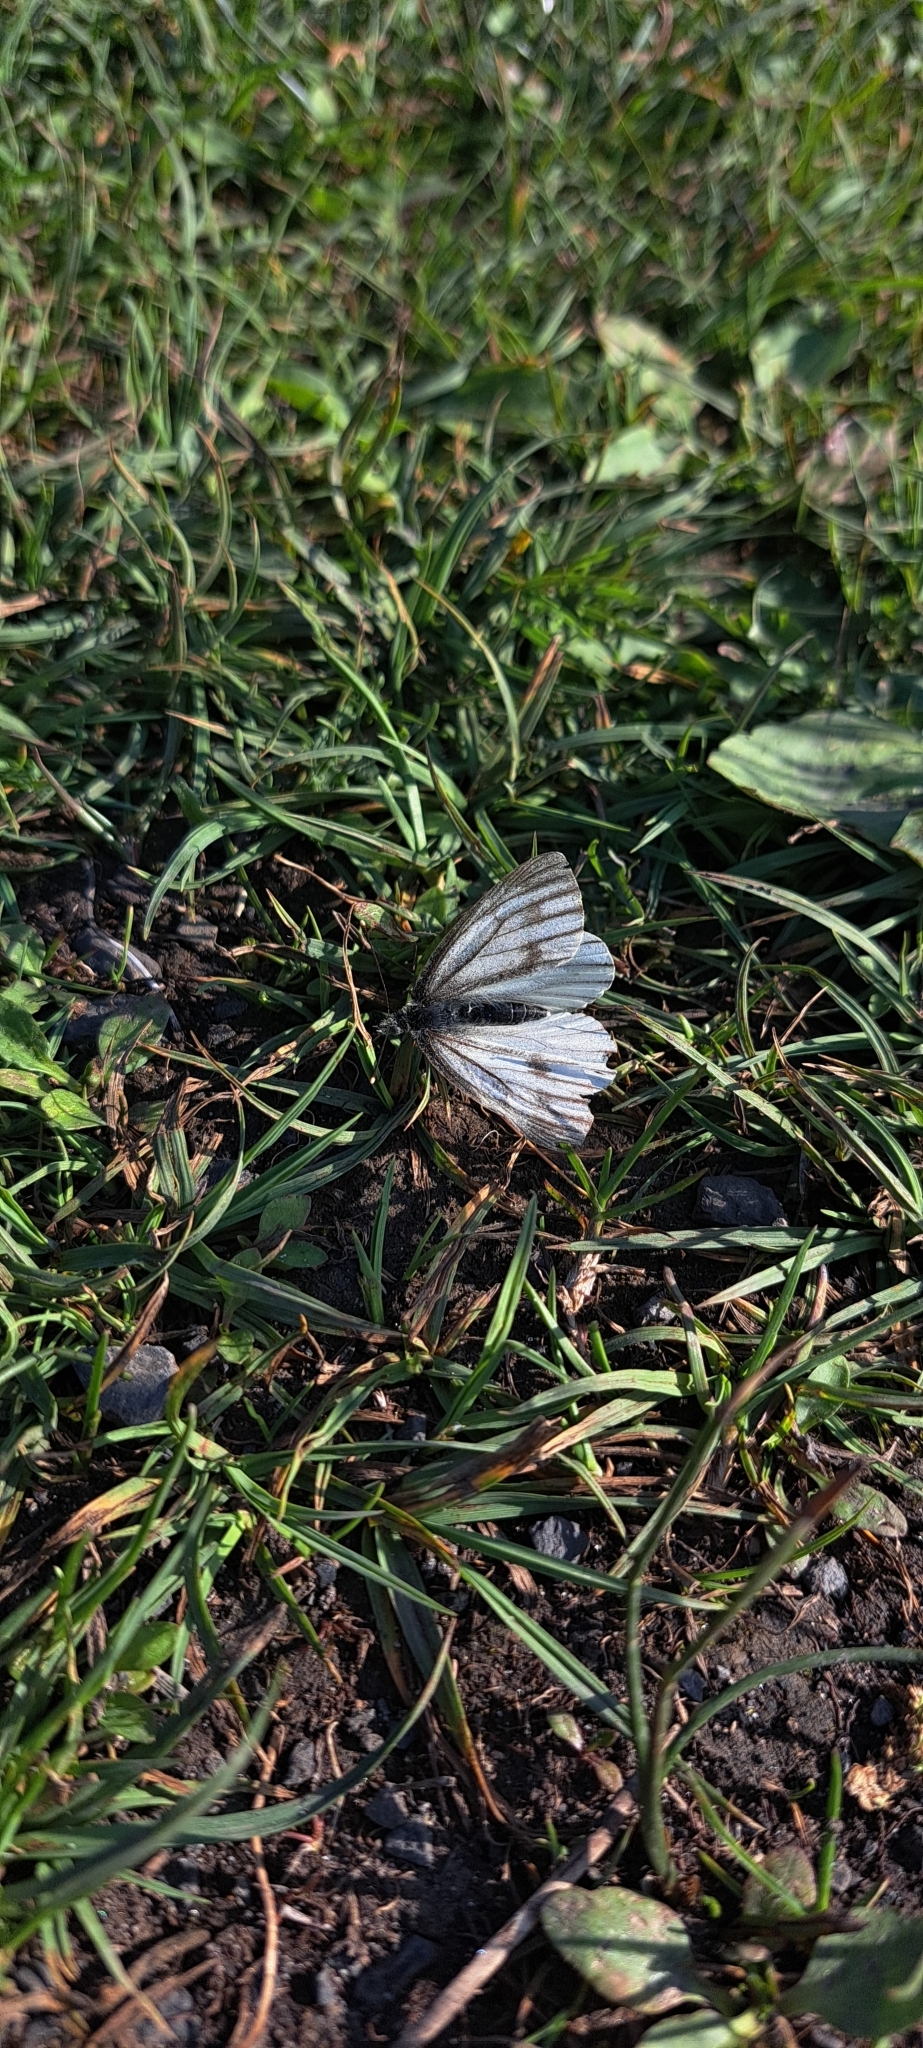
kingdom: Animalia
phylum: Arthropoda
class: Insecta
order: Lepidoptera
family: Pieridae
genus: Pieris
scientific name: Pieris napi
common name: Green-veined white
